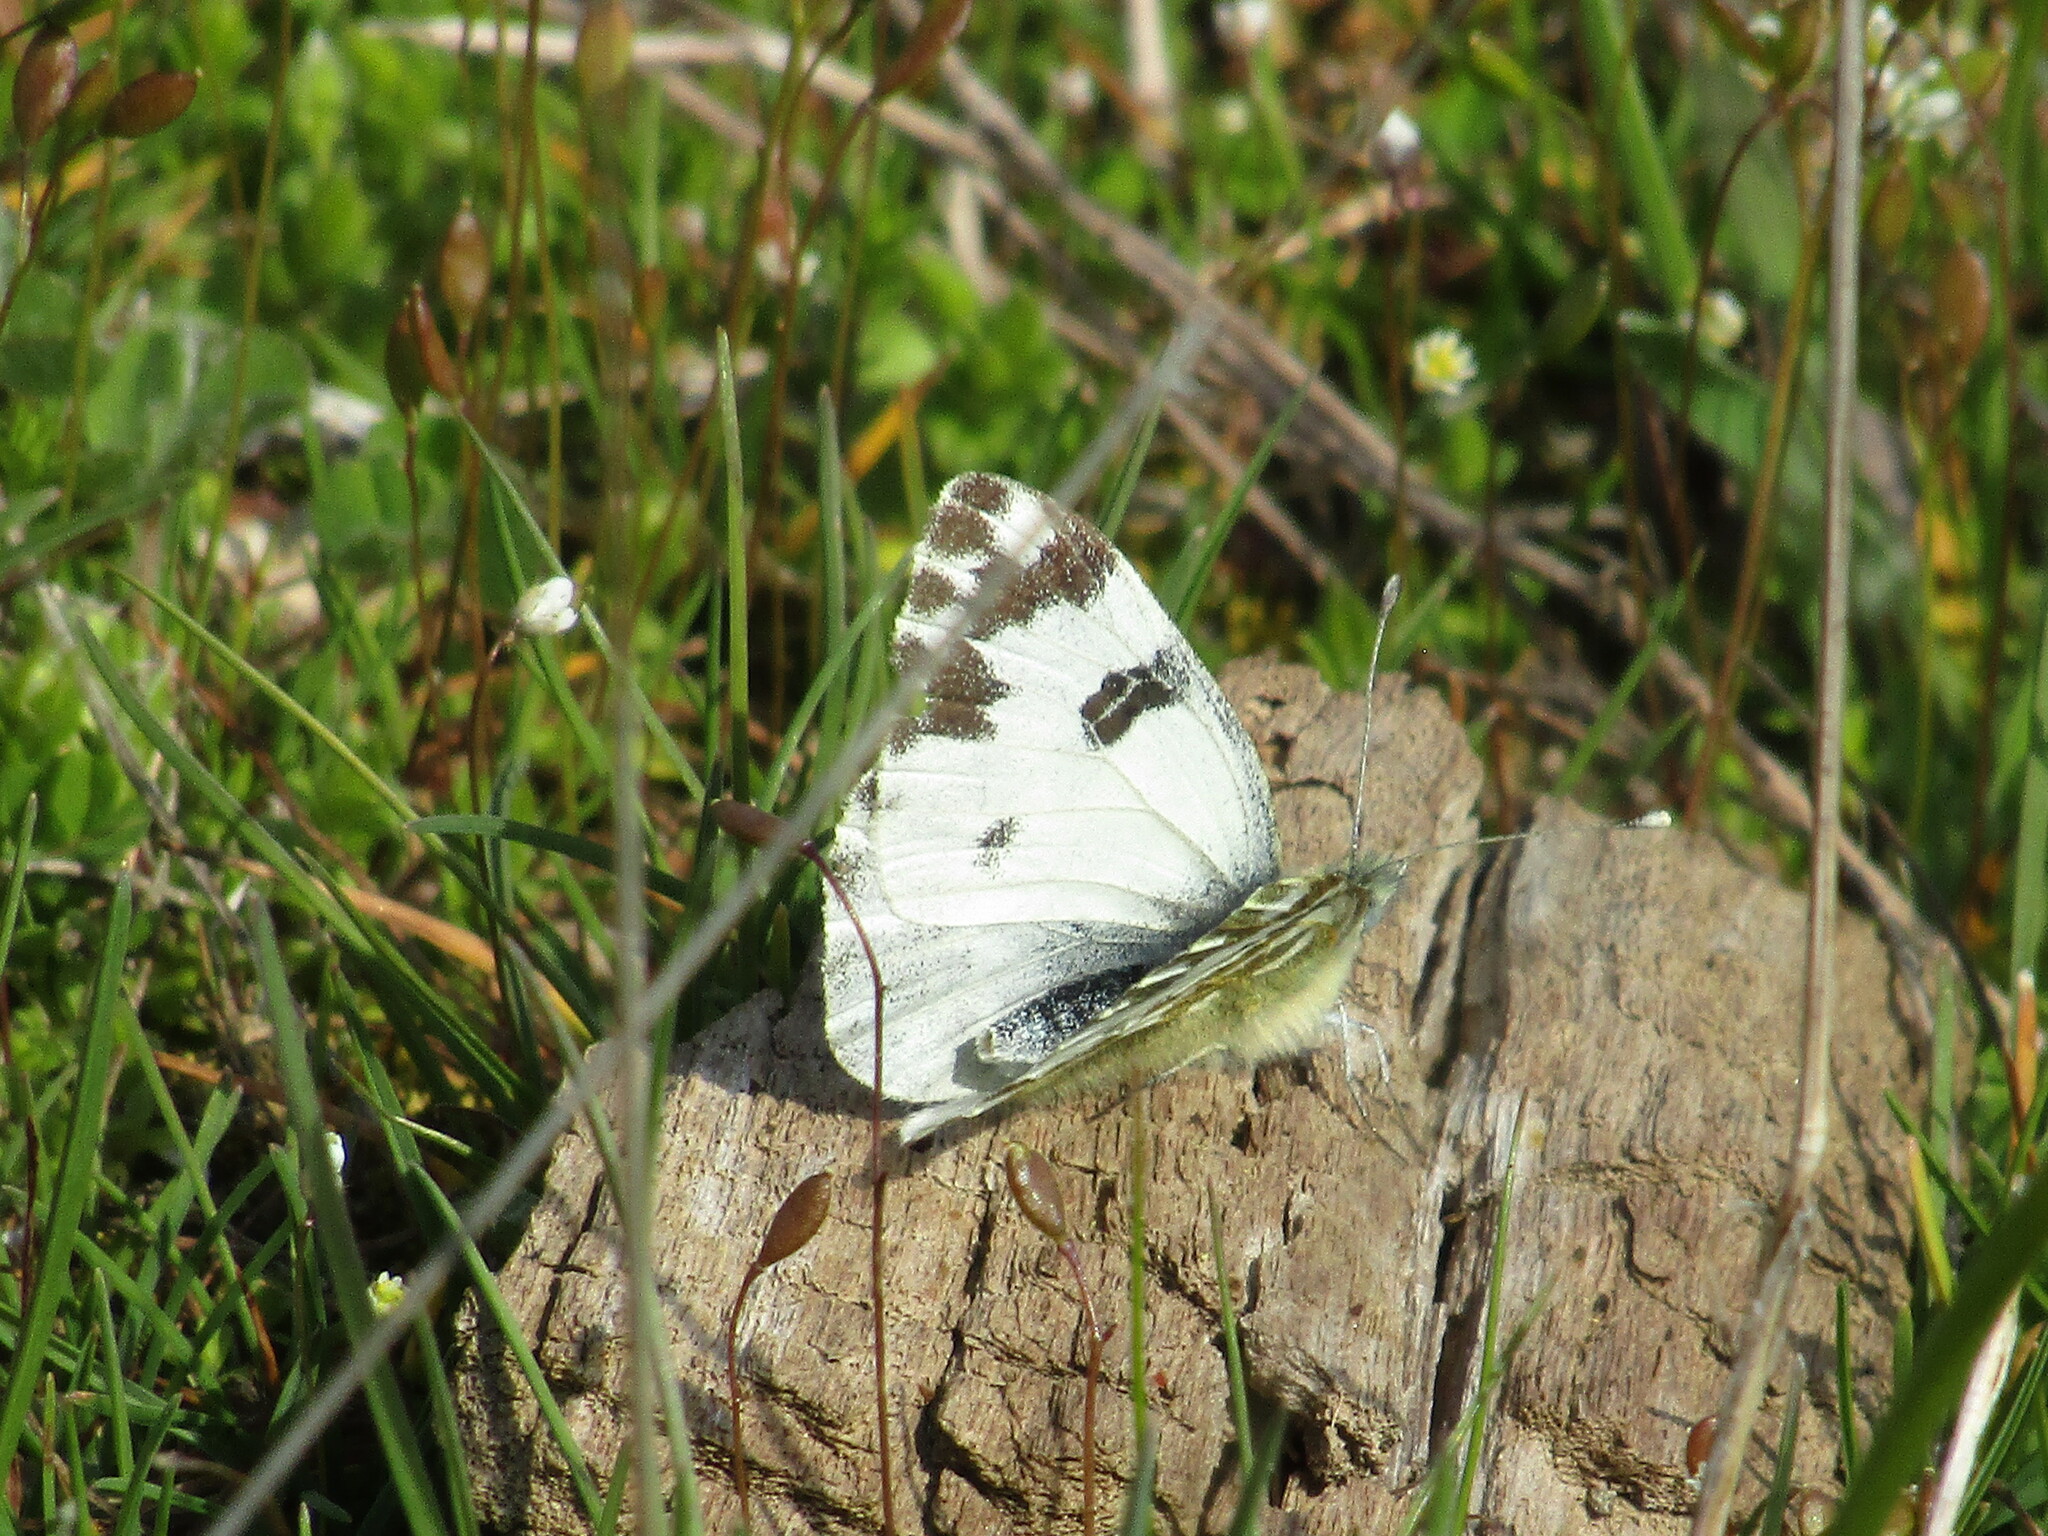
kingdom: Animalia
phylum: Arthropoda
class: Insecta
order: Lepidoptera
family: Pieridae
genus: Pontia
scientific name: Pontia edusa
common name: Eastern bath white
